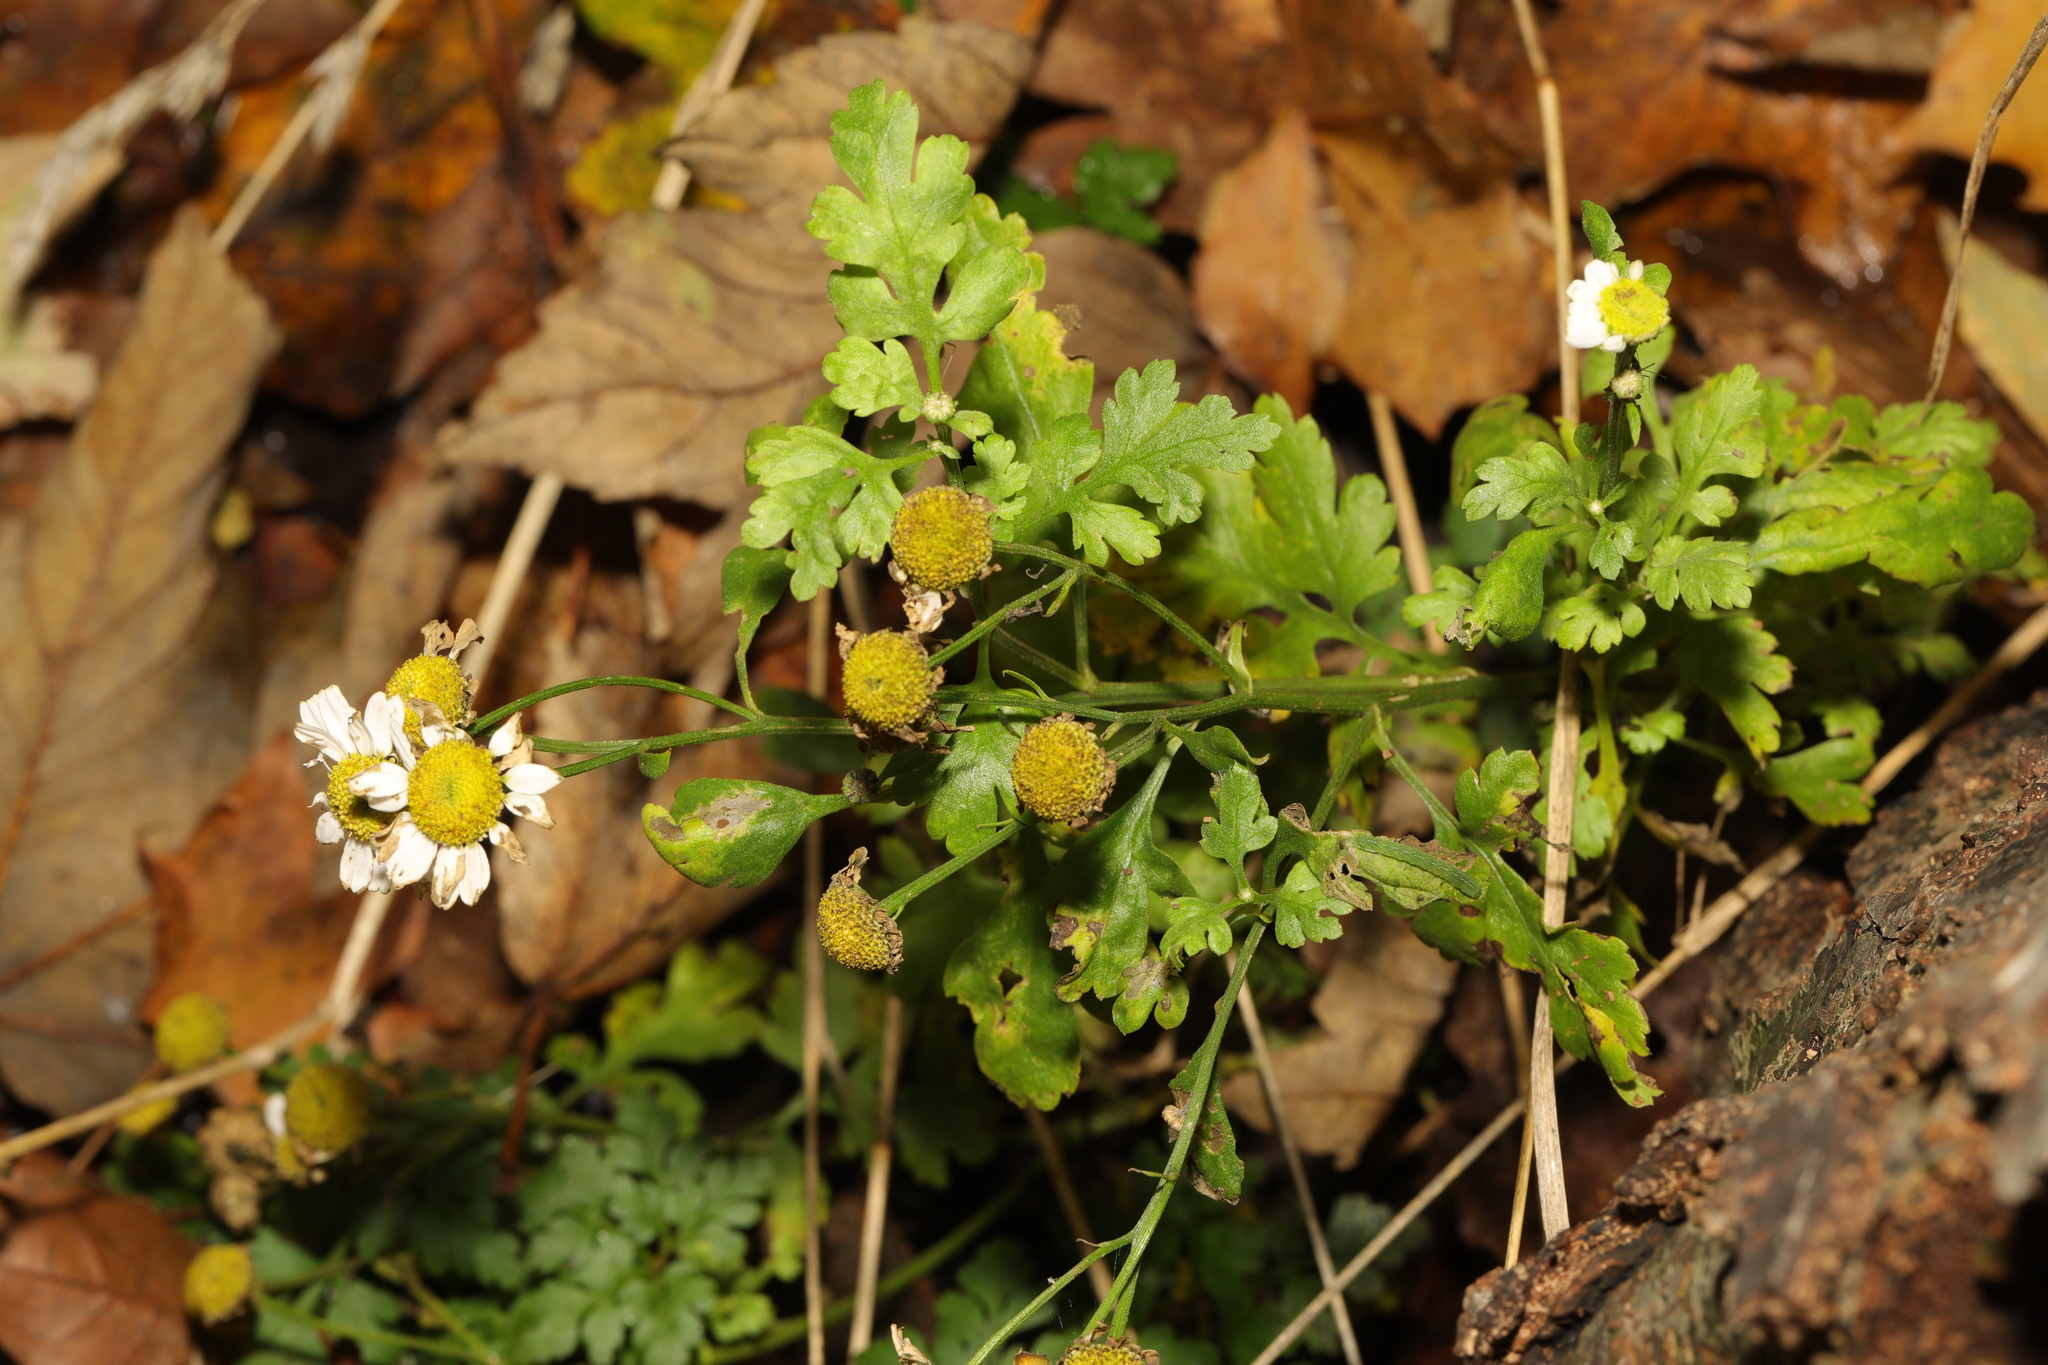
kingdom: Plantae
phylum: Tracheophyta
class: Magnoliopsida
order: Asterales
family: Asteraceae
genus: Tanacetum
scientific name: Tanacetum parthenium
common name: Feverfew
